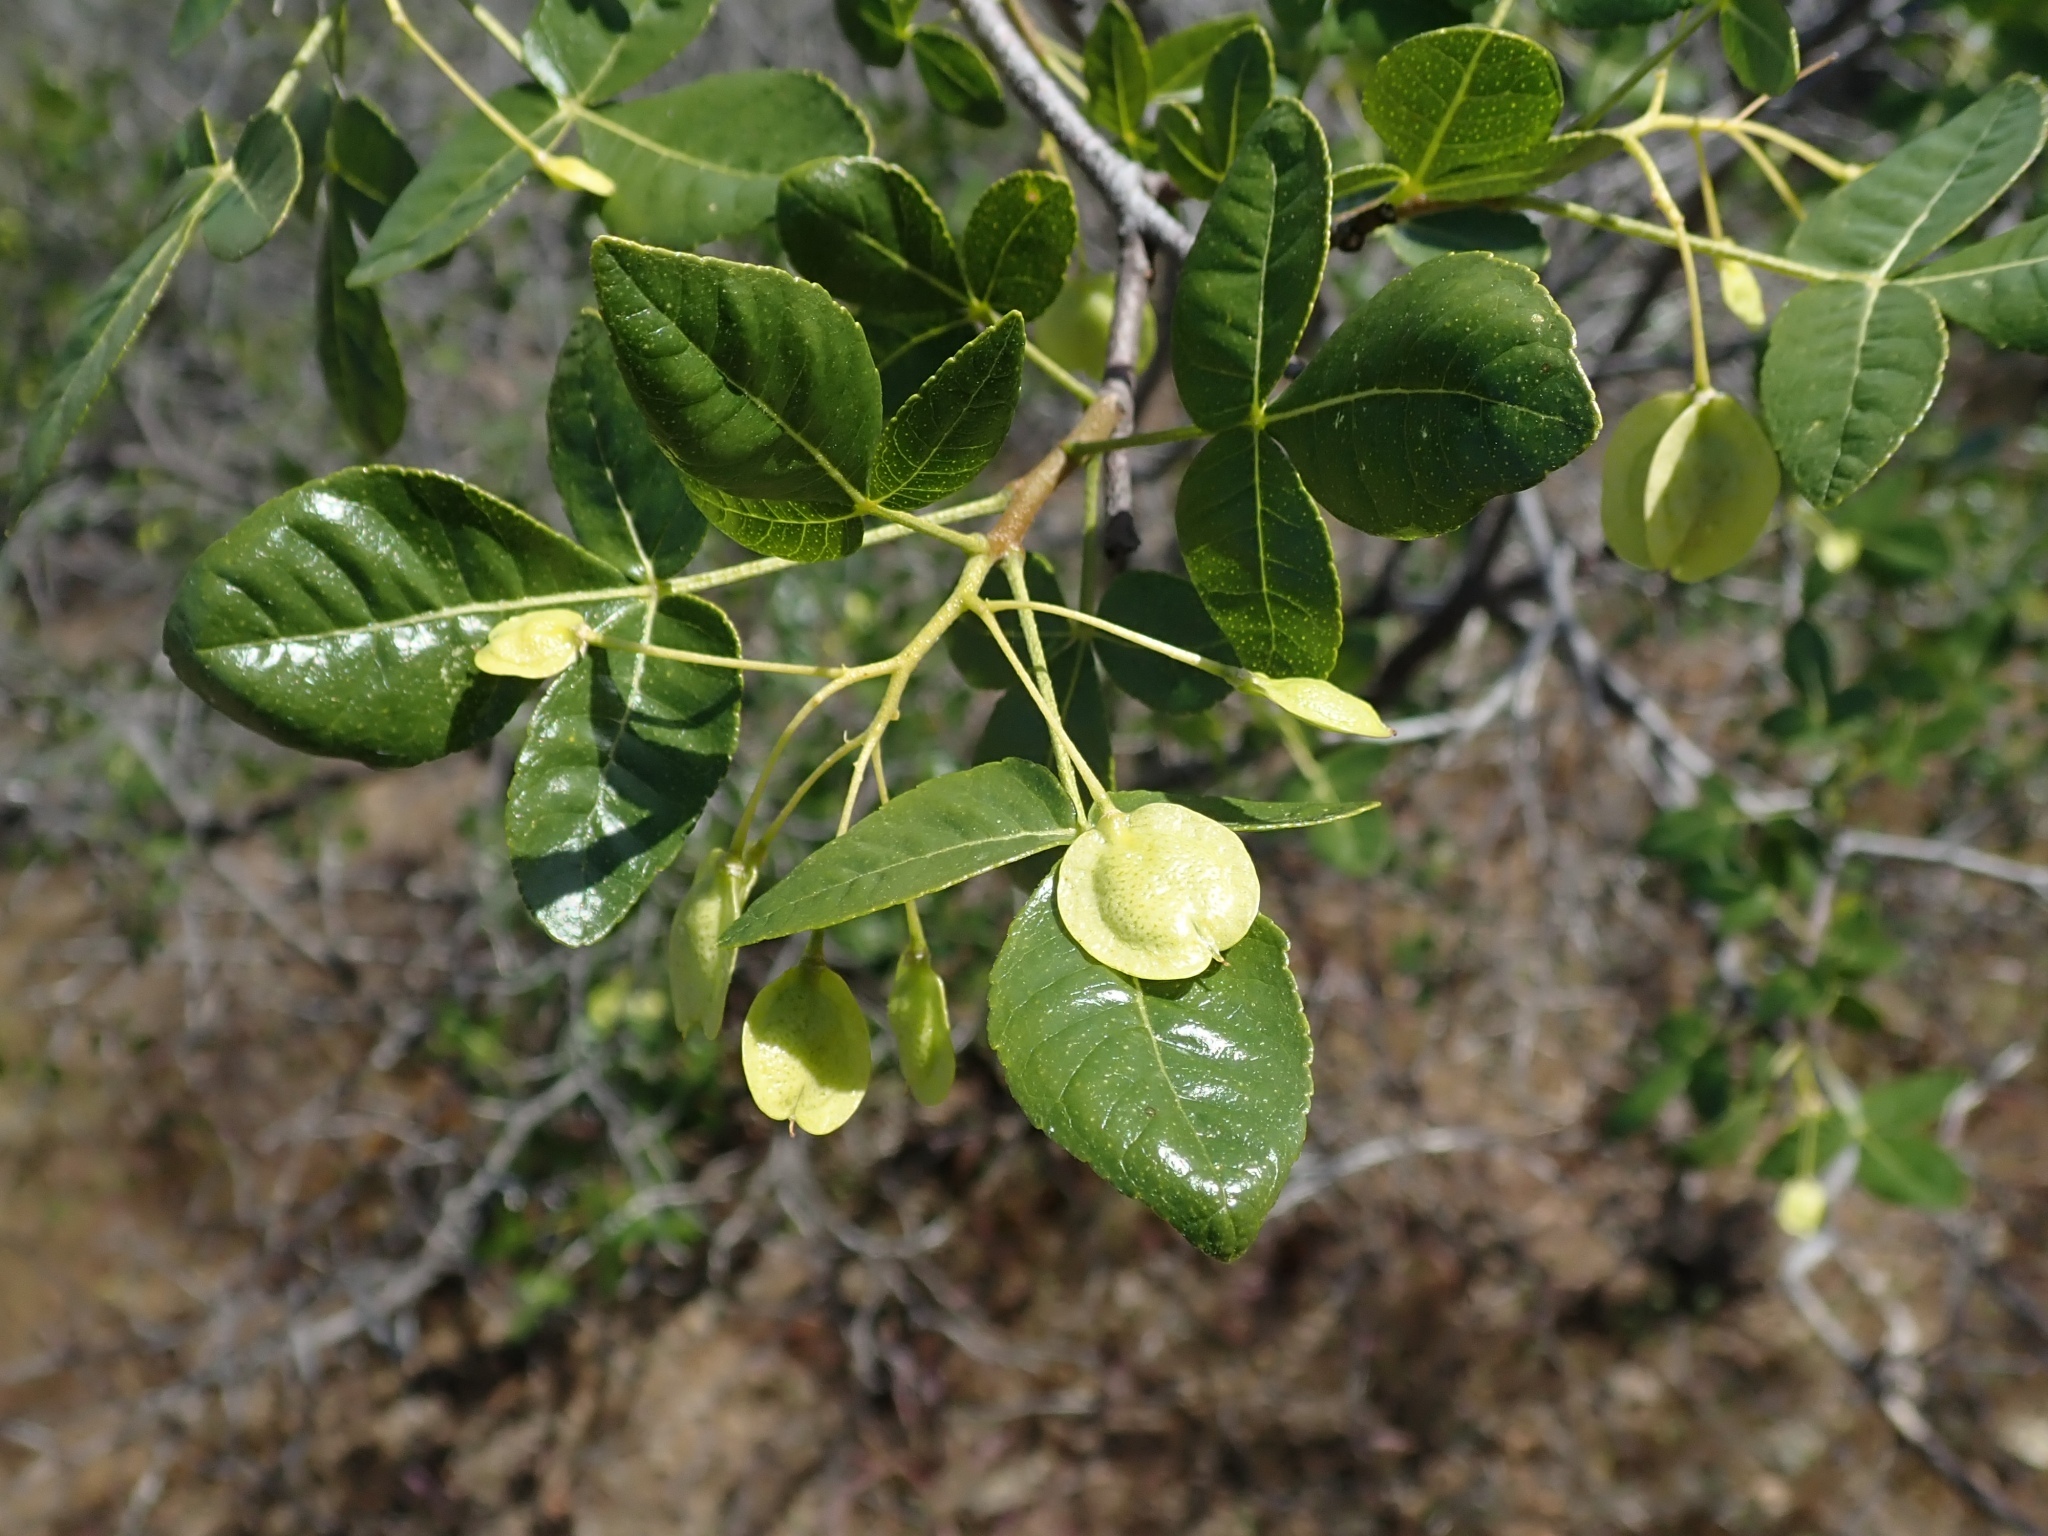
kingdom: Plantae
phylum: Tracheophyta
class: Magnoliopsida
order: Sapindales
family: Rutaceae
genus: Ptelea
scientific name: Ptelea crenulata
